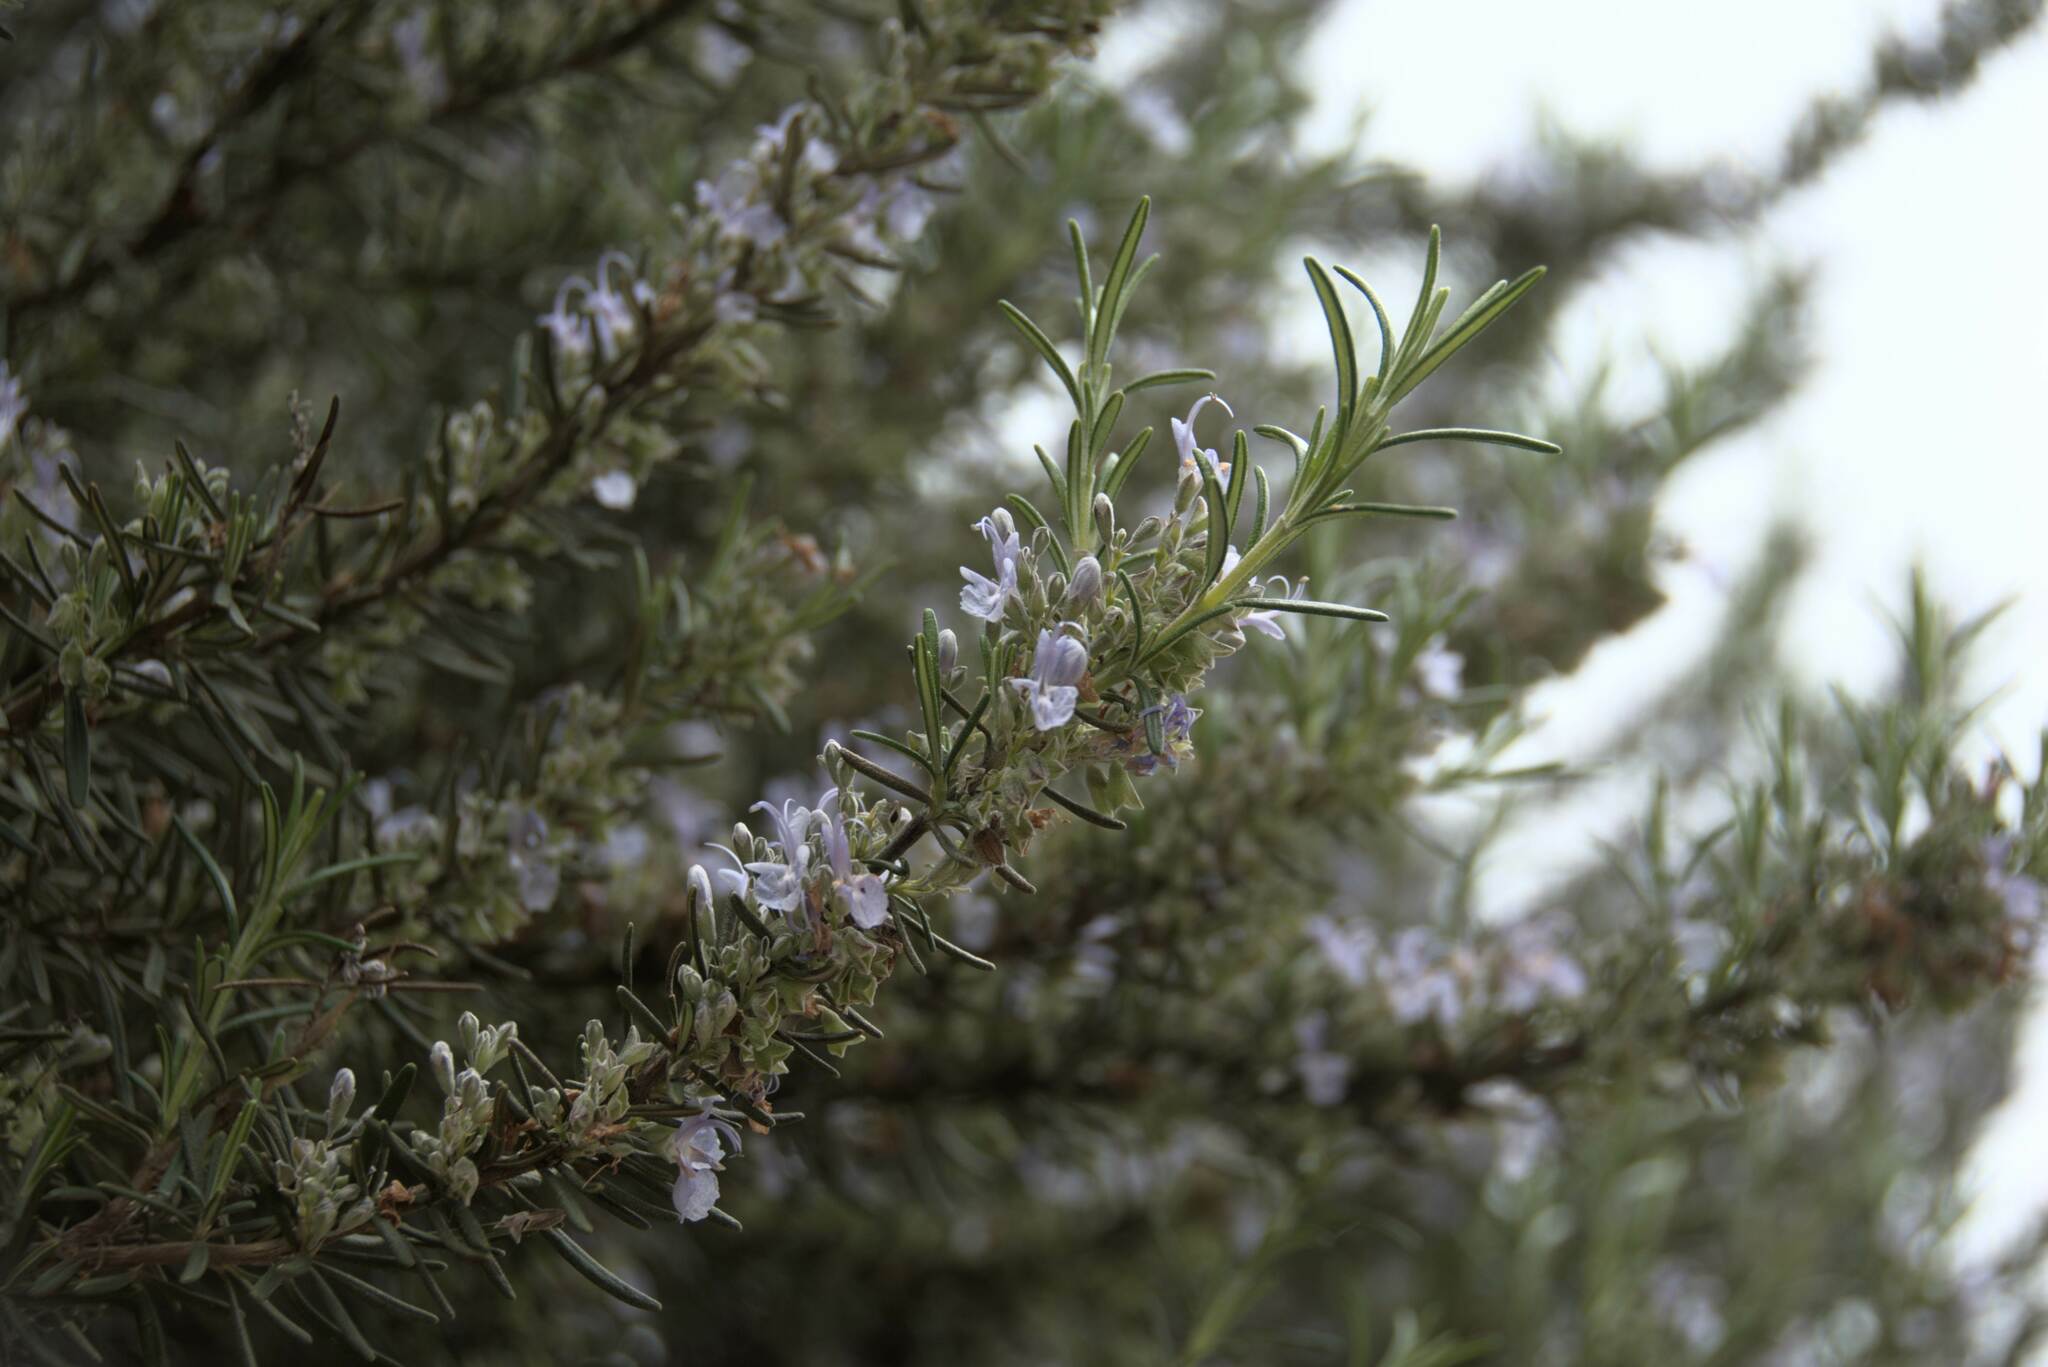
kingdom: Plantae
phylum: Tracheophyta
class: Magnoliopsida
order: Lamiales
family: Lamiaceae
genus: Salvia
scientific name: Salvia rosmarinus
